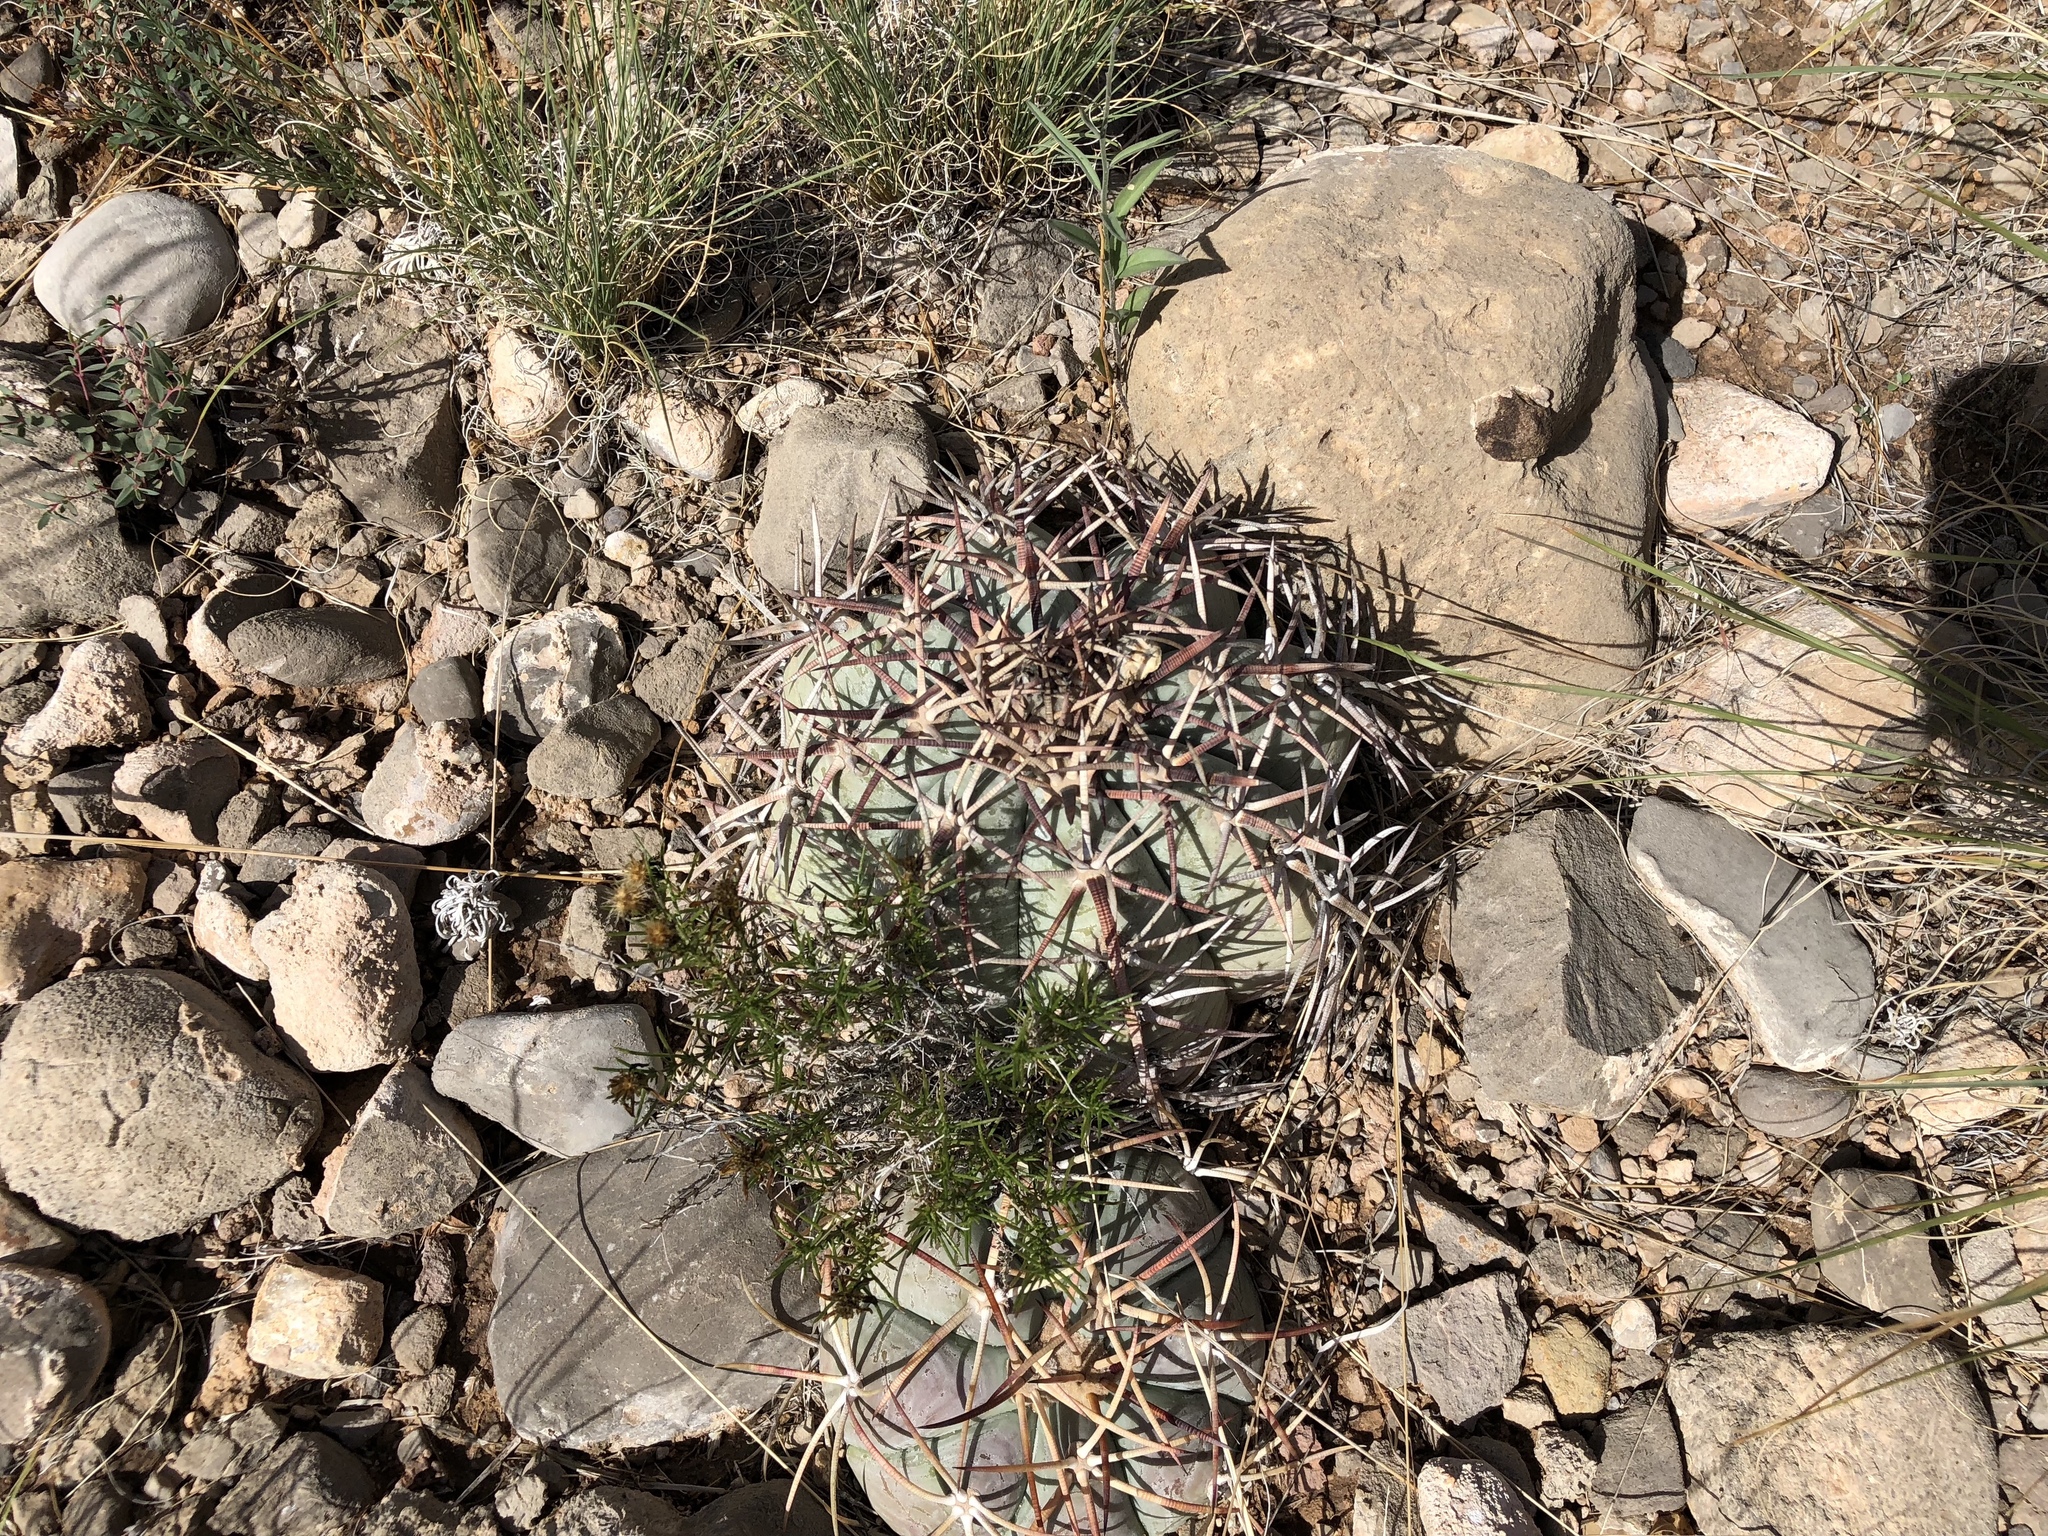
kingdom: Plantae
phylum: Tracheophyta
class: Magnoliopsida
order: Caryophyllales
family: Cactaceae
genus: Echinocactus
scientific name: Echinocactus horizonthalonius
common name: Devilshead
